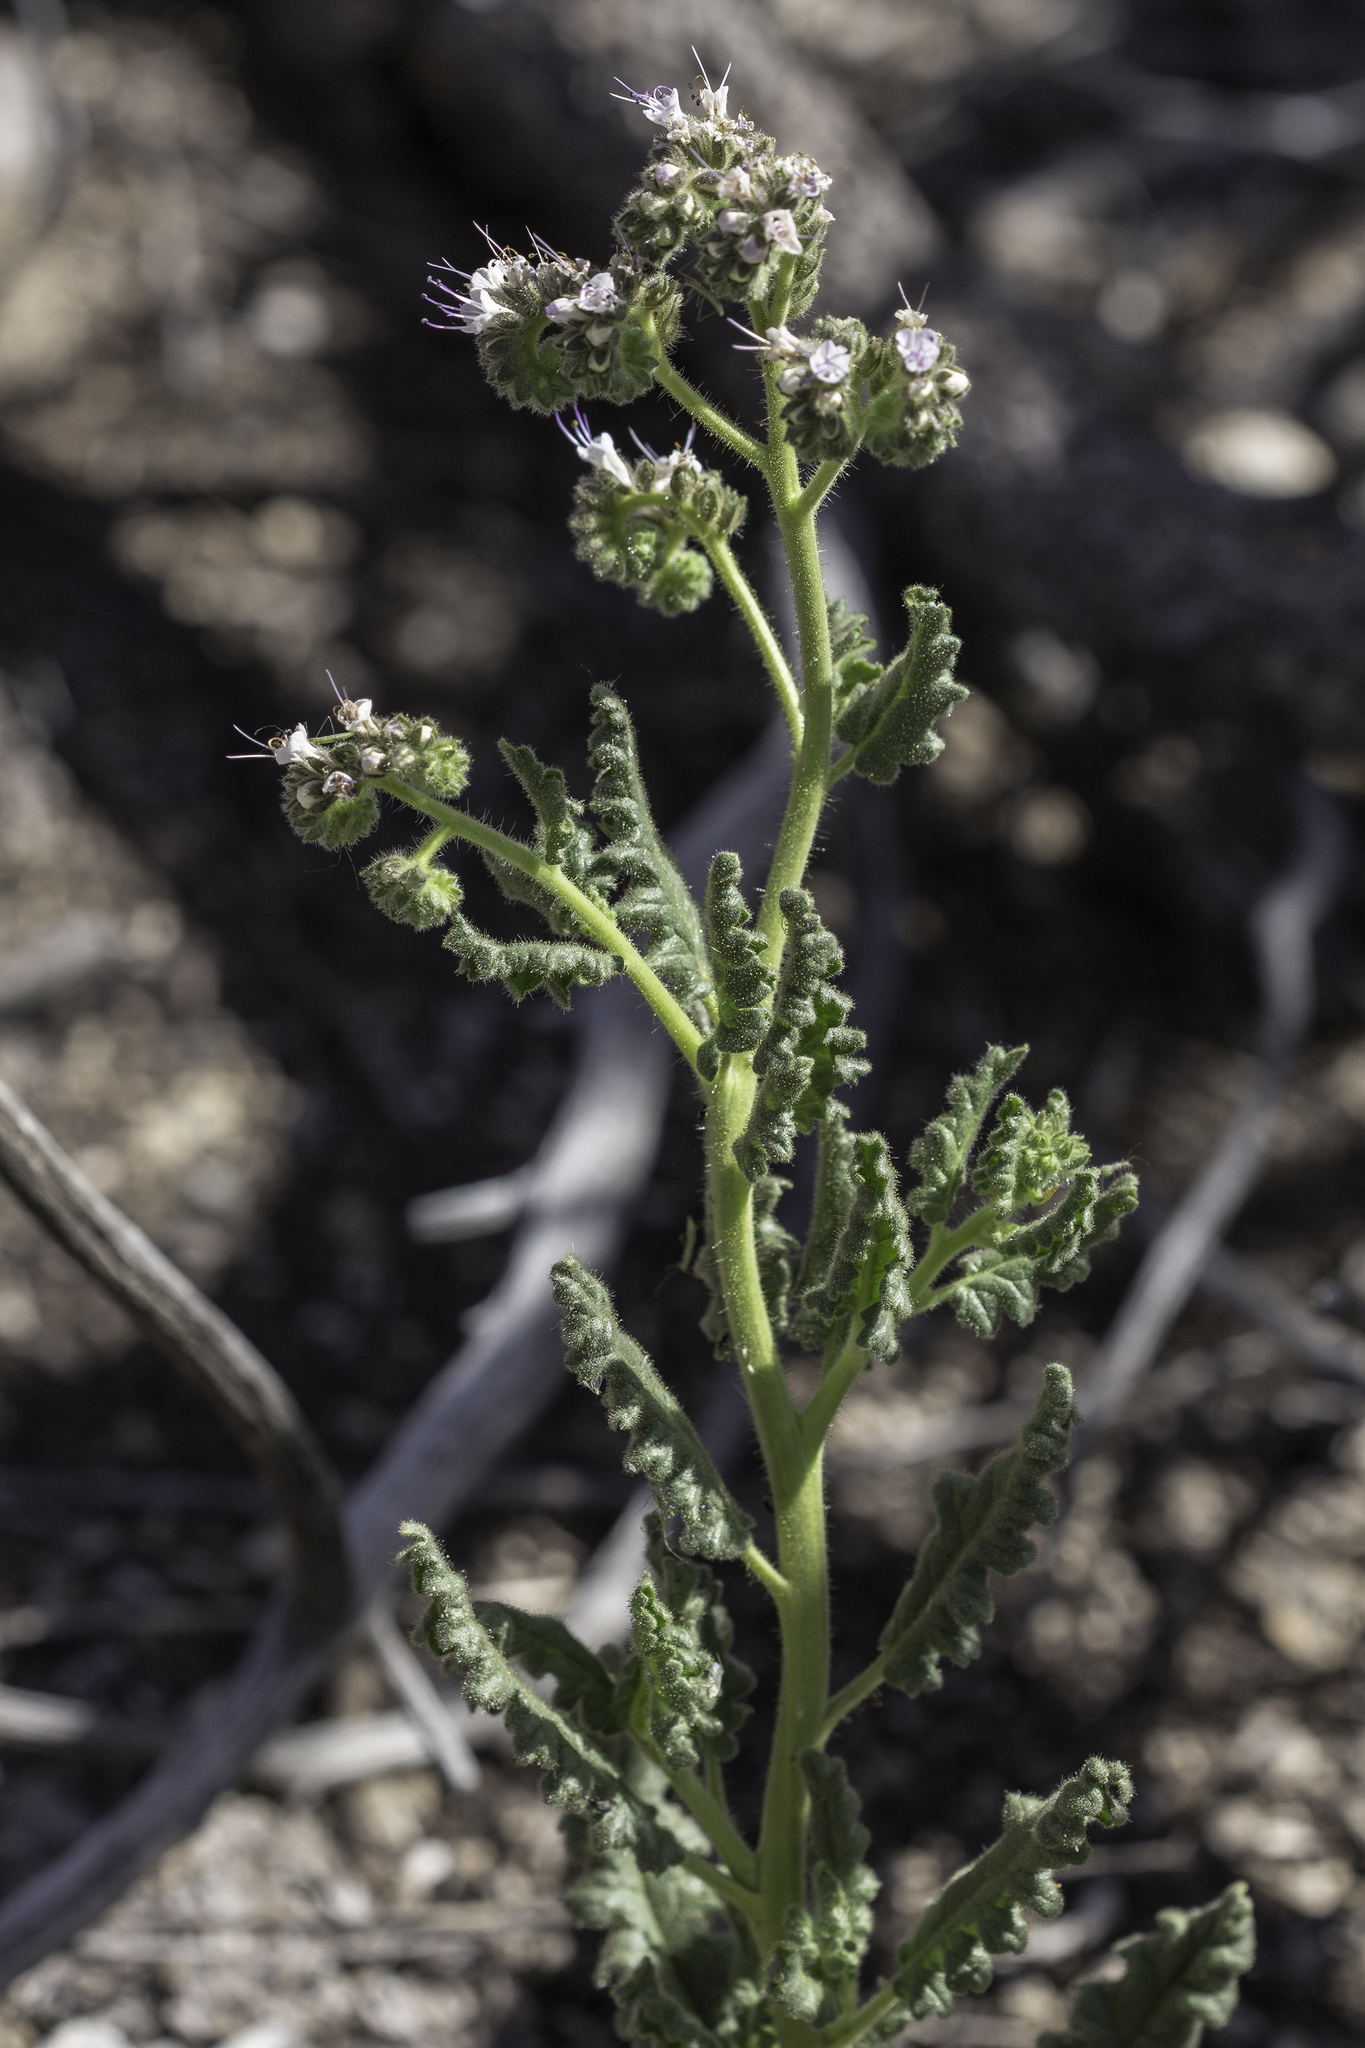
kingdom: Plantae
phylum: Tracheophyta
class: Magnoliopsida
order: Boraginales
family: Hydrophyllaceae
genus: Phacelia
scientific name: Phacelia pinkavae
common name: Pinkava's phacelia
